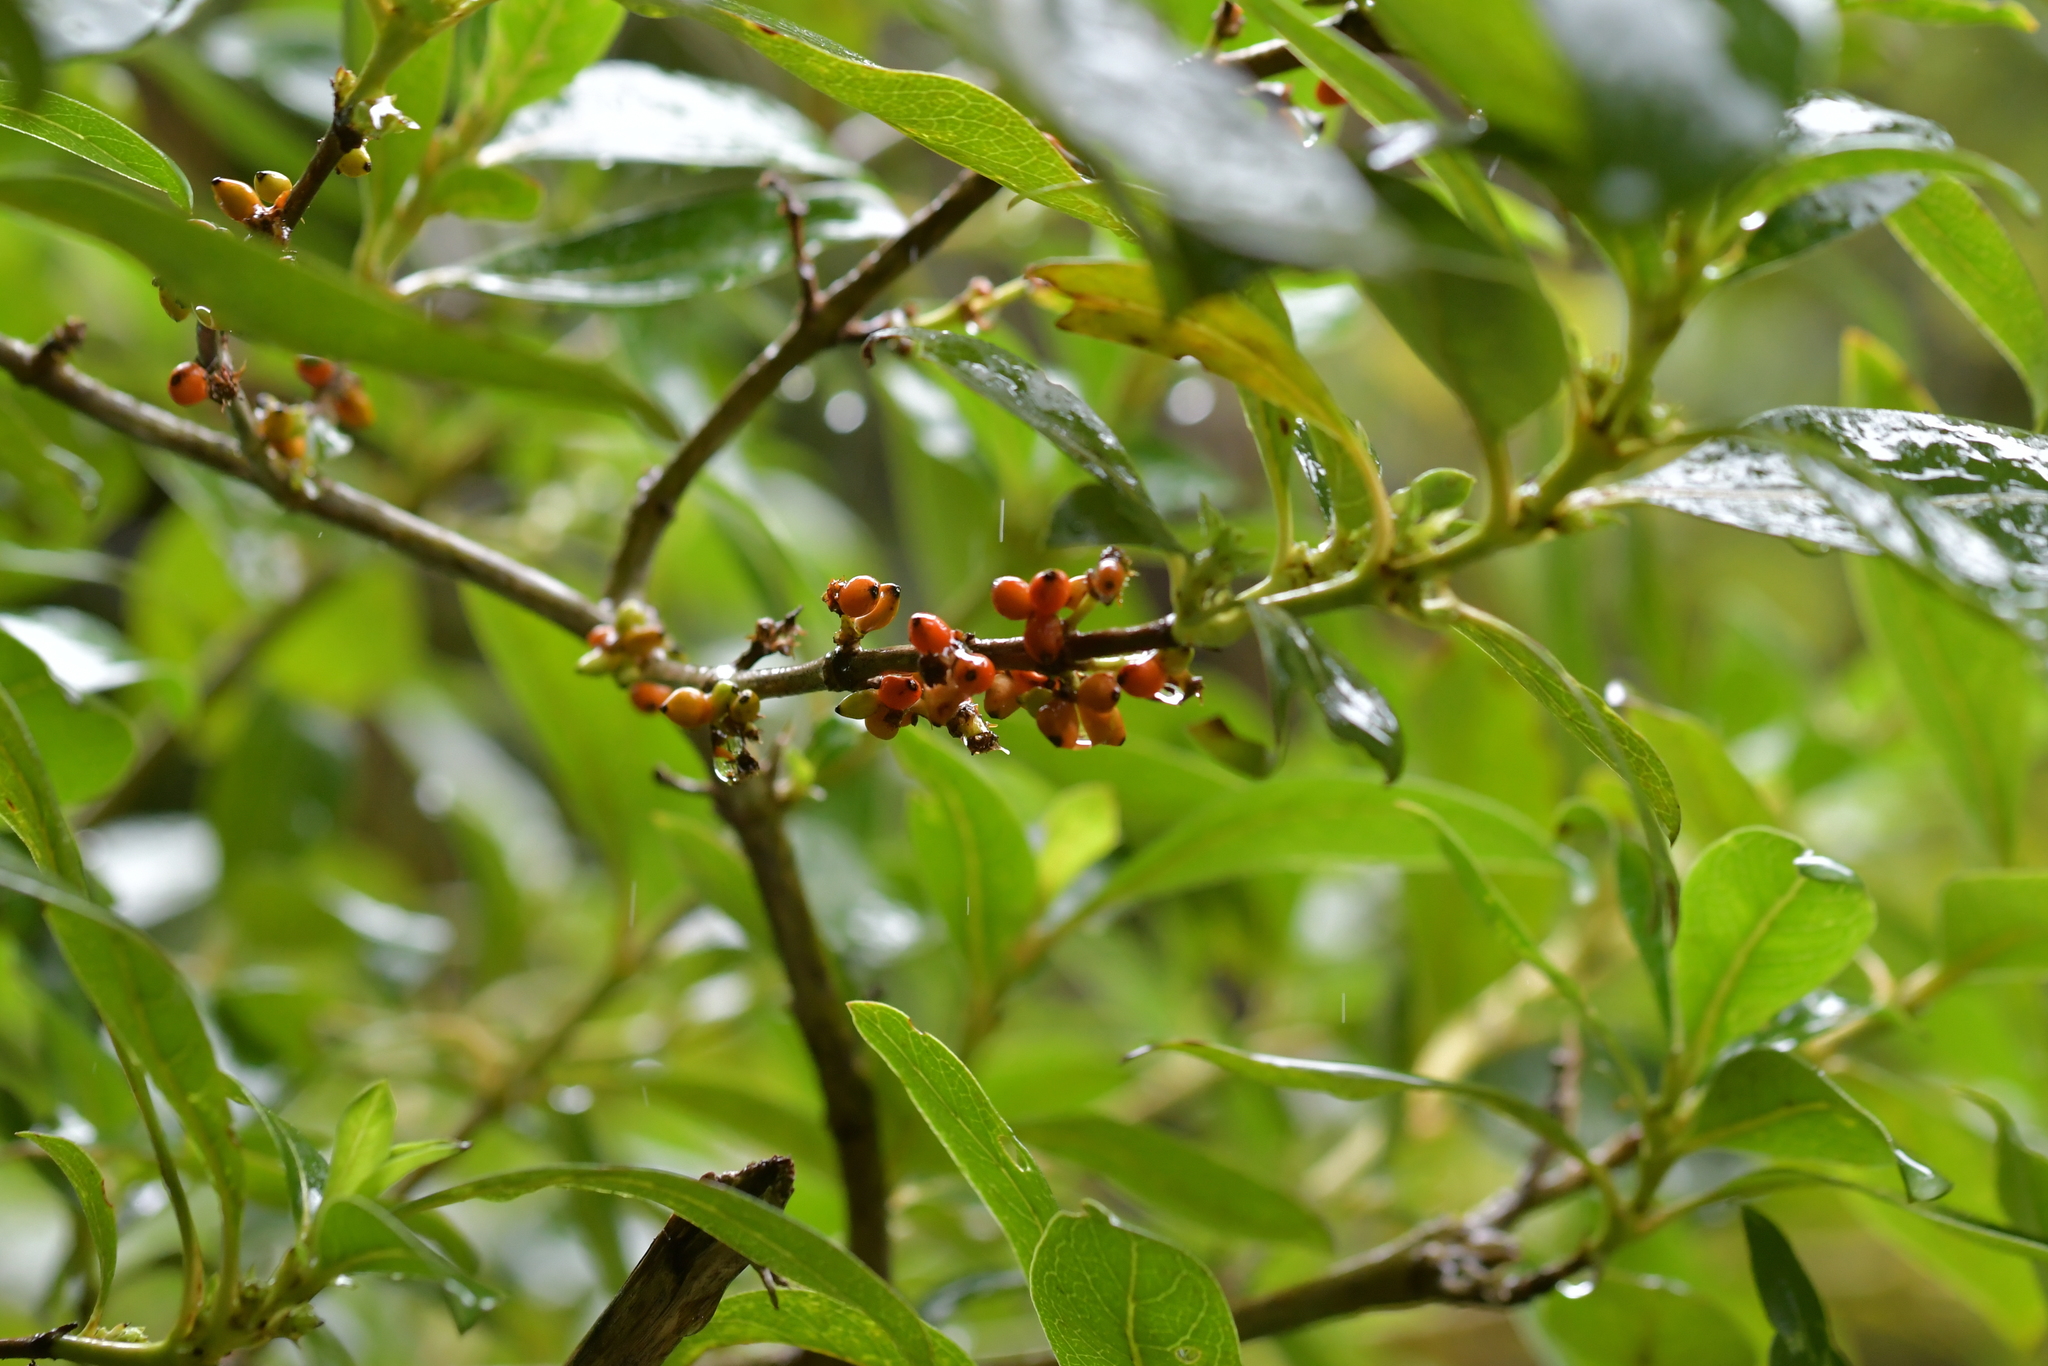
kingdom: Plantae
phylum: Tracheophyta
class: Magnoliopsida
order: Gentianales
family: Rubiaceae
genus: Coprosma
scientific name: Coprosma robusta
